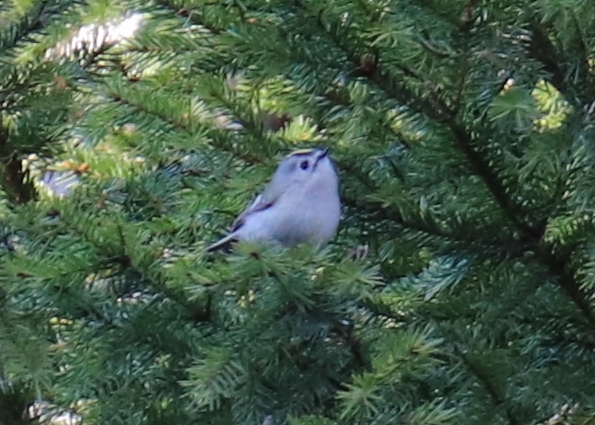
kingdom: Animalia
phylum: Chordata
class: Aves
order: Passeriformes
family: Regulidae
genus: Regulus
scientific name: Regulus regulus
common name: Goldcrest
